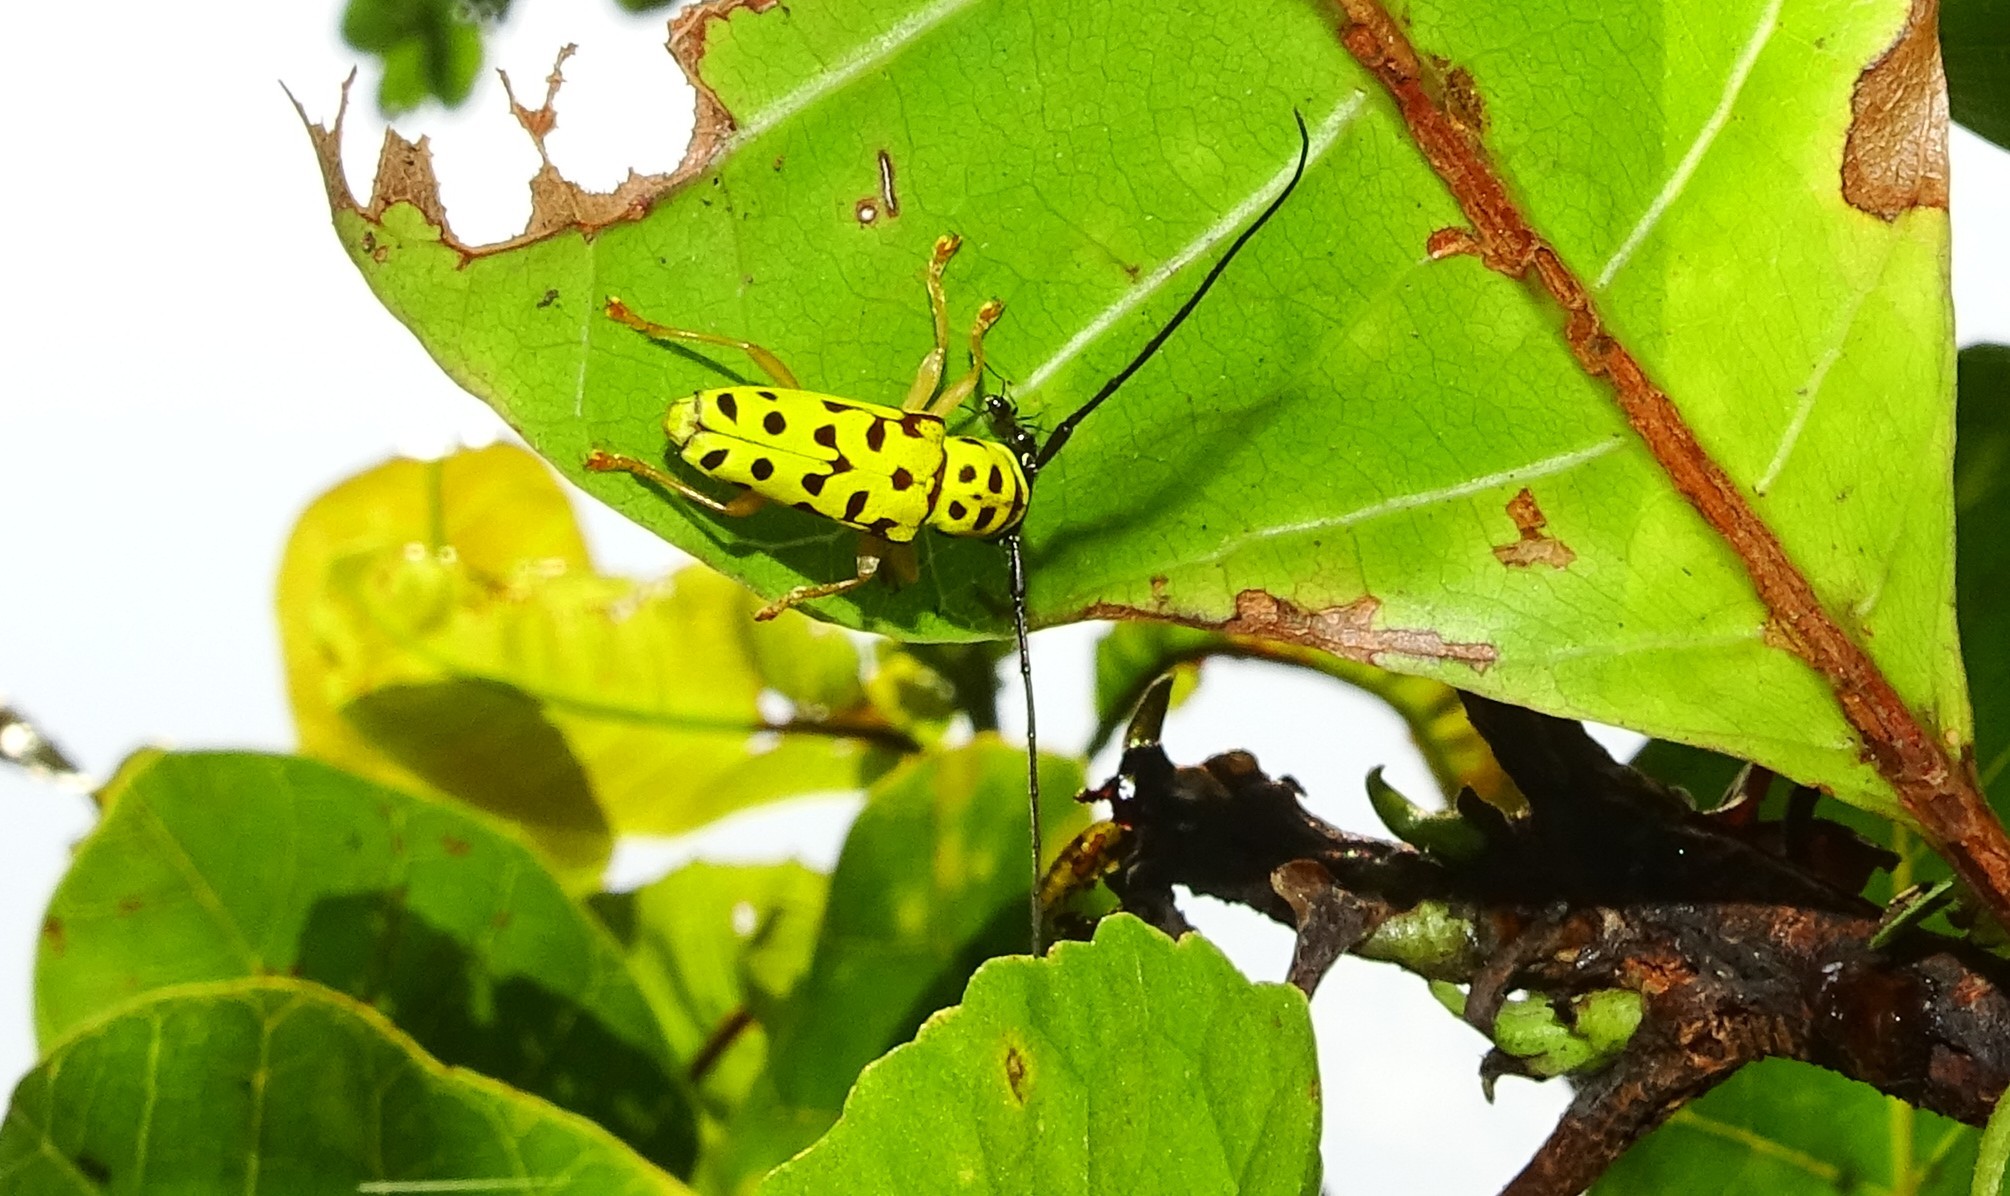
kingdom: Animalia
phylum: Arthropoda
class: Insecta
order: Coleoptera
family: Cerambycidae
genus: Glenea
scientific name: Glenea multiguttata
